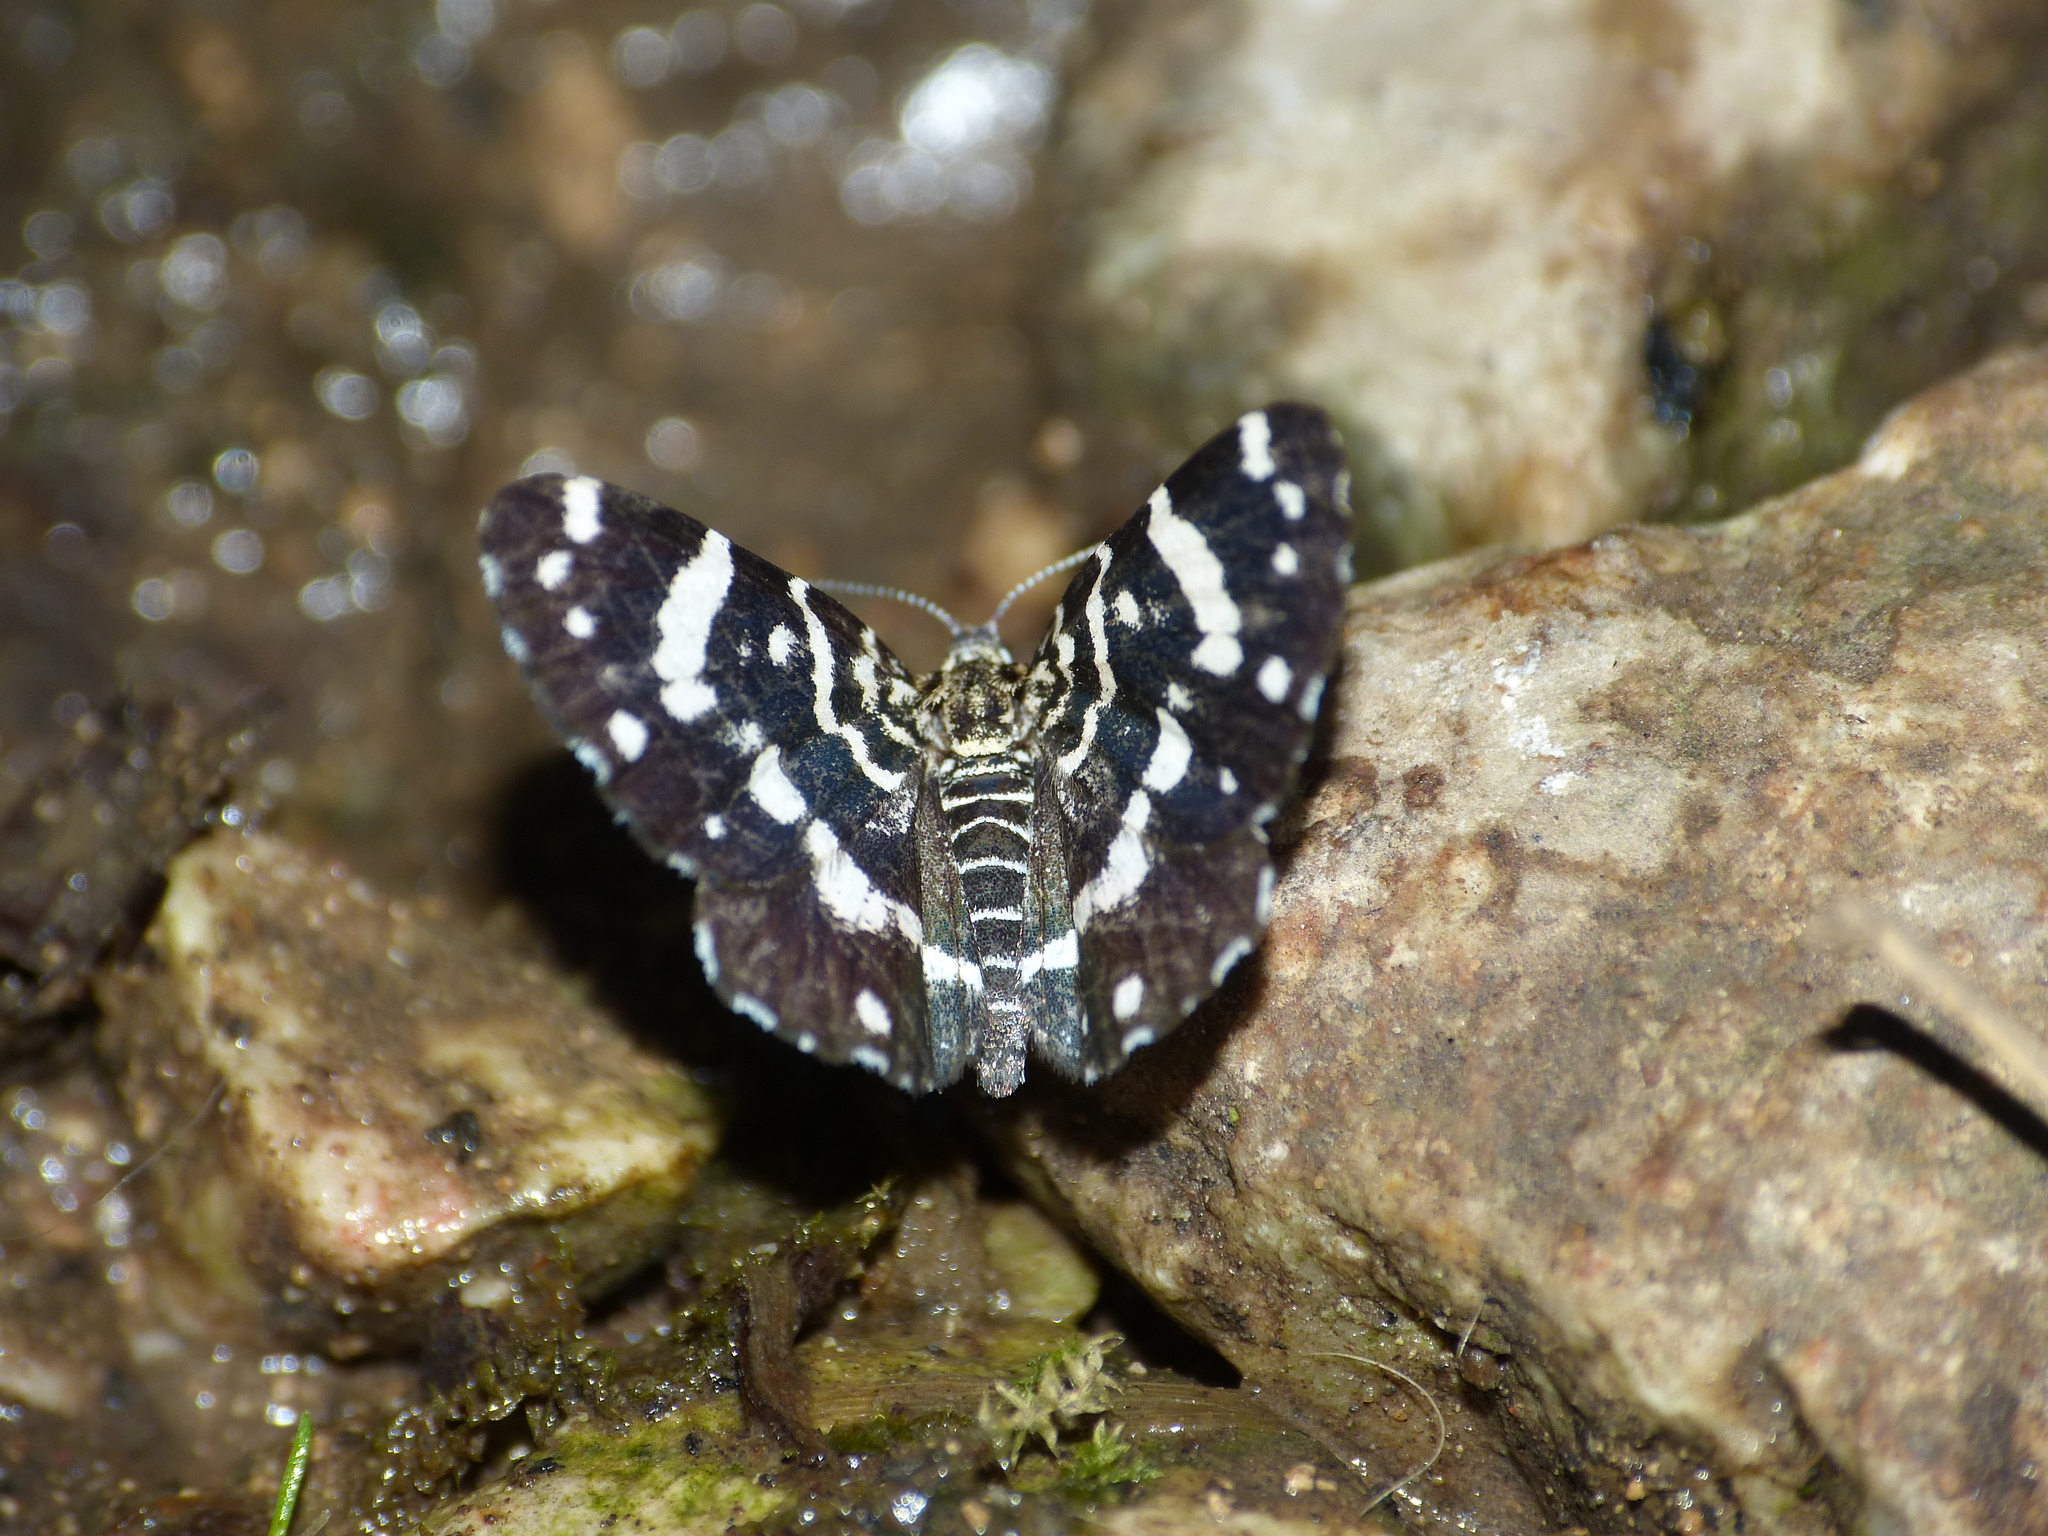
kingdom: Animalia
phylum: Arthropoda
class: Insecta
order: Lepidoptera
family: Geometridae
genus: Colostygia
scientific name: Colostygia corydalaria
